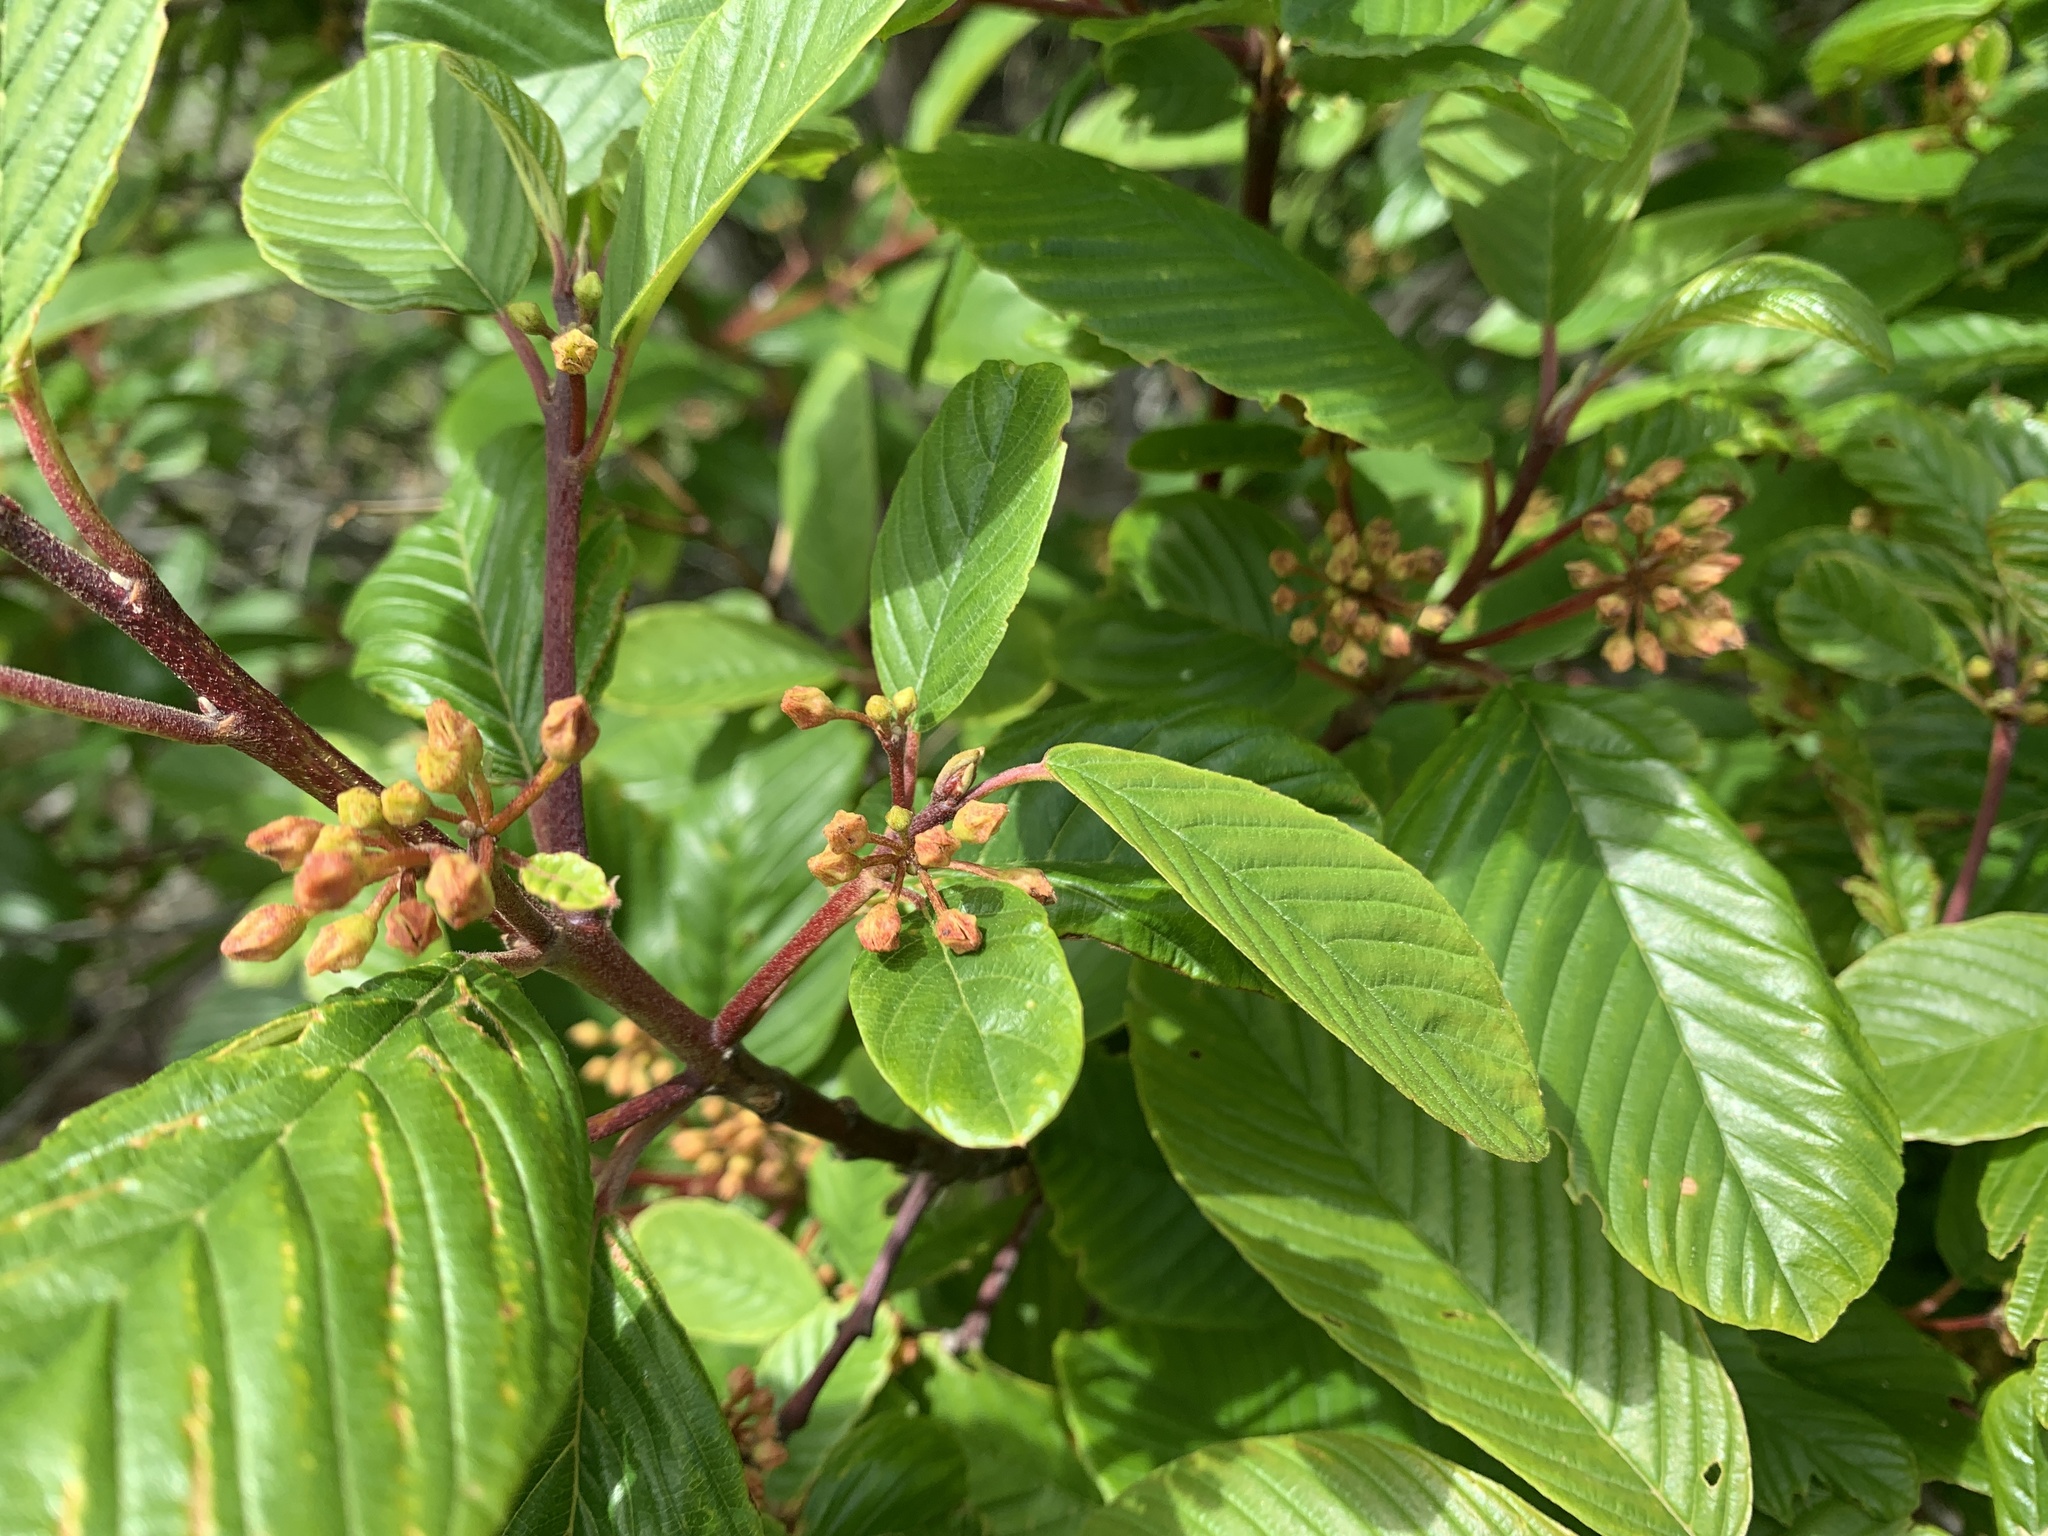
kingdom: Plantae
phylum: Tracheophyta
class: Magnoliopsida
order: Rosales
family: Rhamnaceae
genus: Frangula
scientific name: Frangula purshiana
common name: Cascara buckthorn
